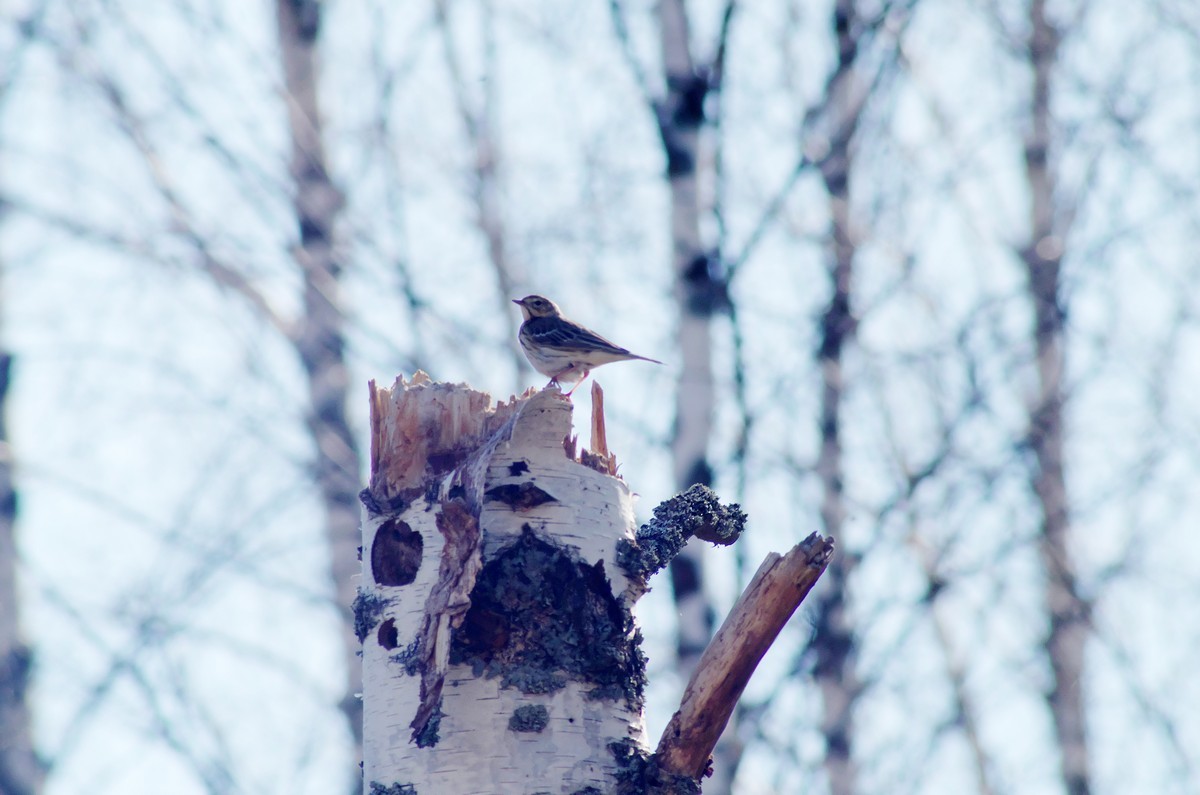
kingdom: Animalia
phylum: Chordata
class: Aves
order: Passeriformes
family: Motacillidae
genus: Anthus
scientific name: Anthus trivialis
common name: Tree pipit
